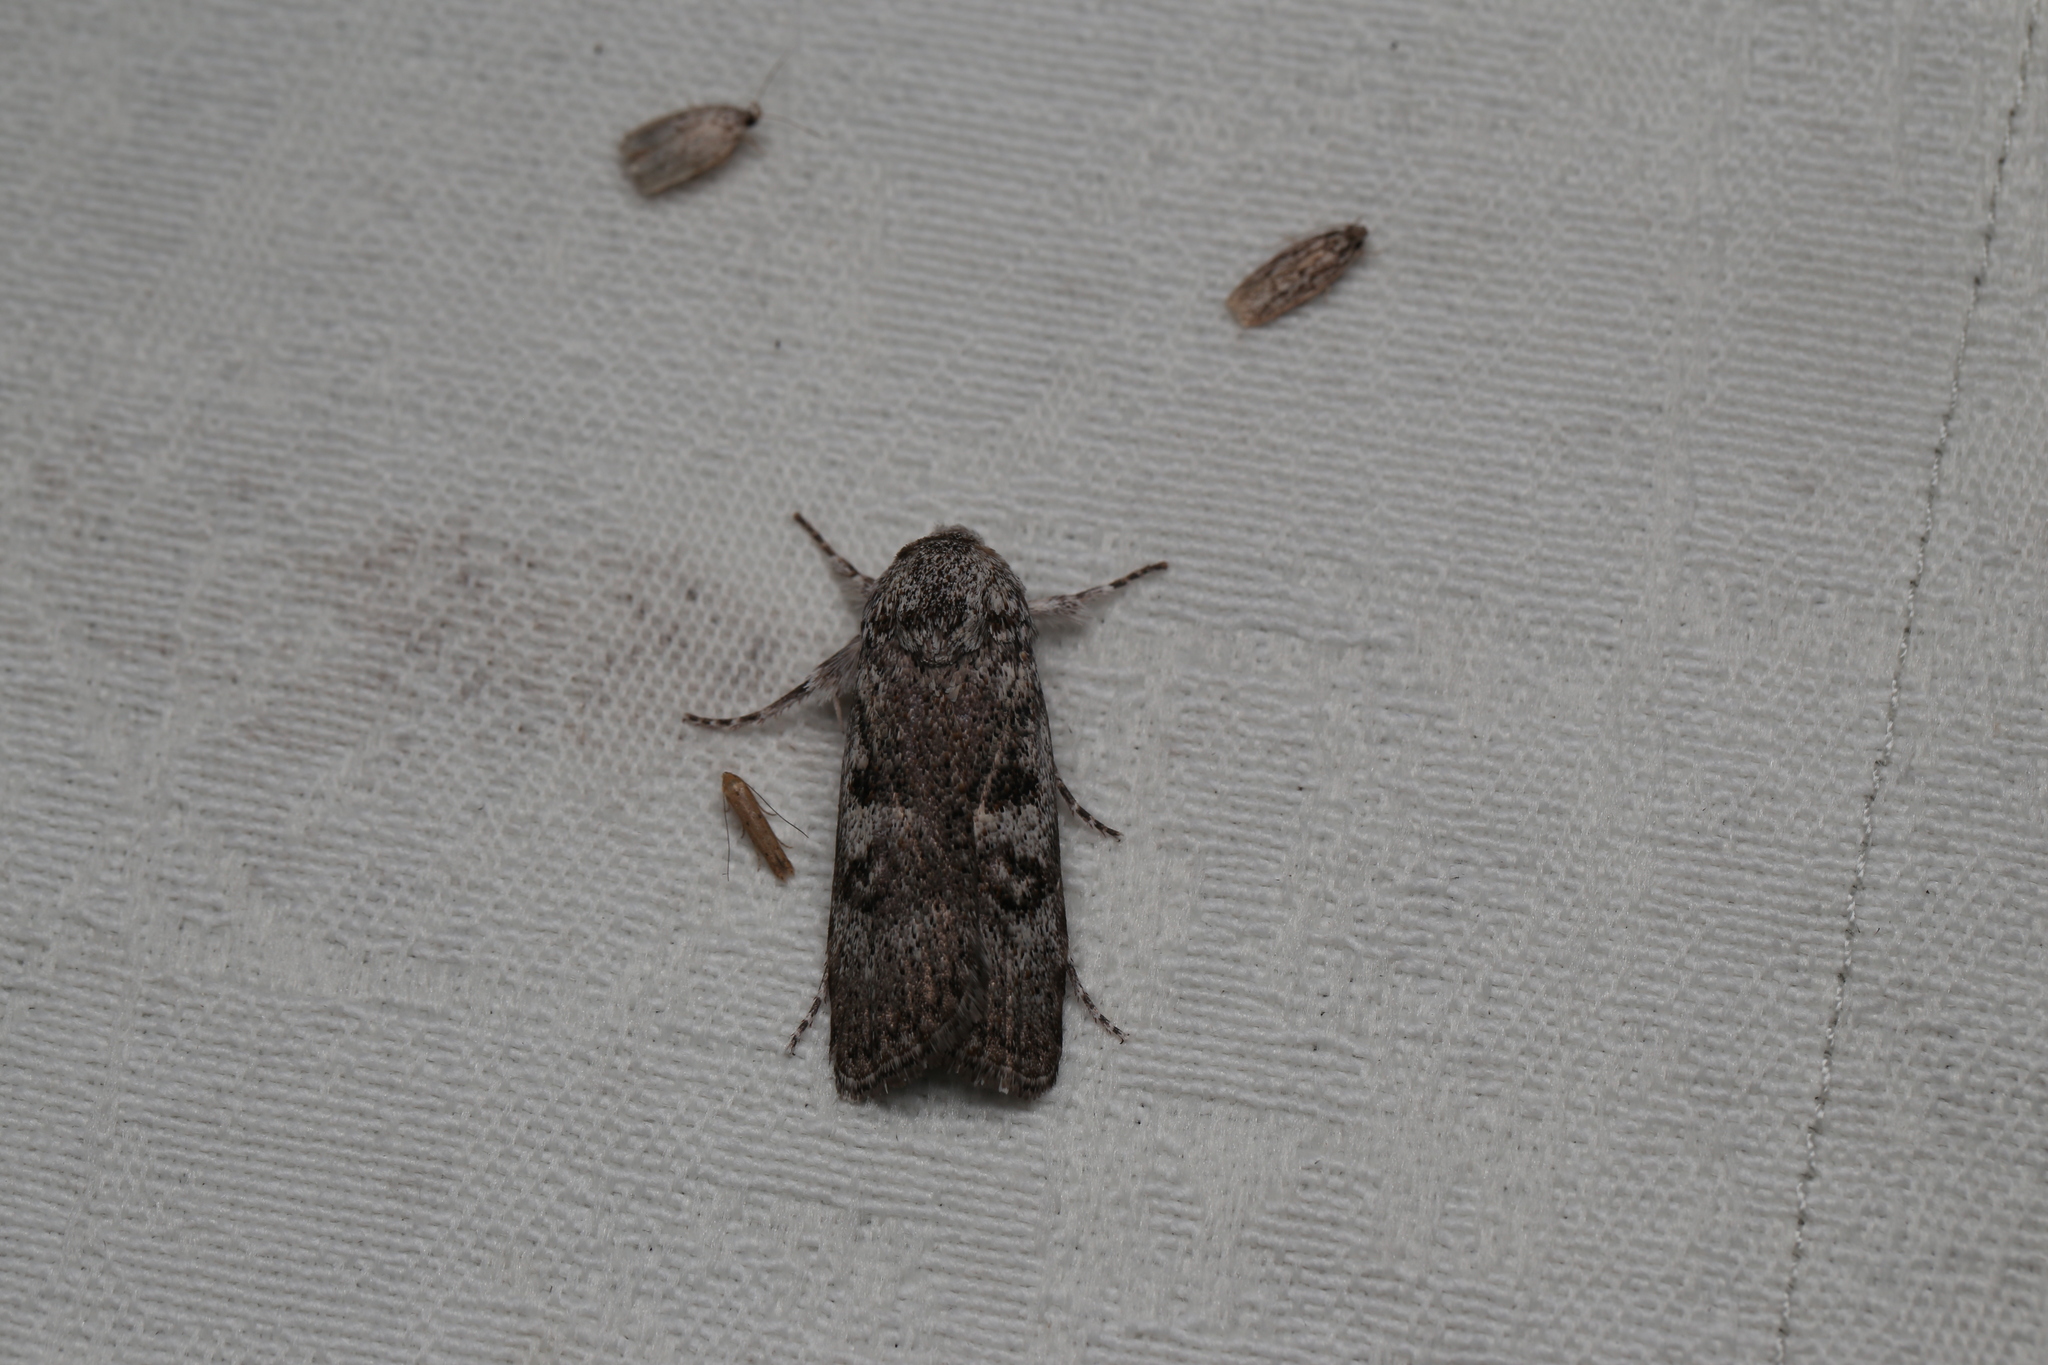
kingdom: Animalia
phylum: Arthropoda
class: Insecta
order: Lepidoptera
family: Xyloryctidae
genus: Cryptophasa
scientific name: Cryptophasa irrorata
